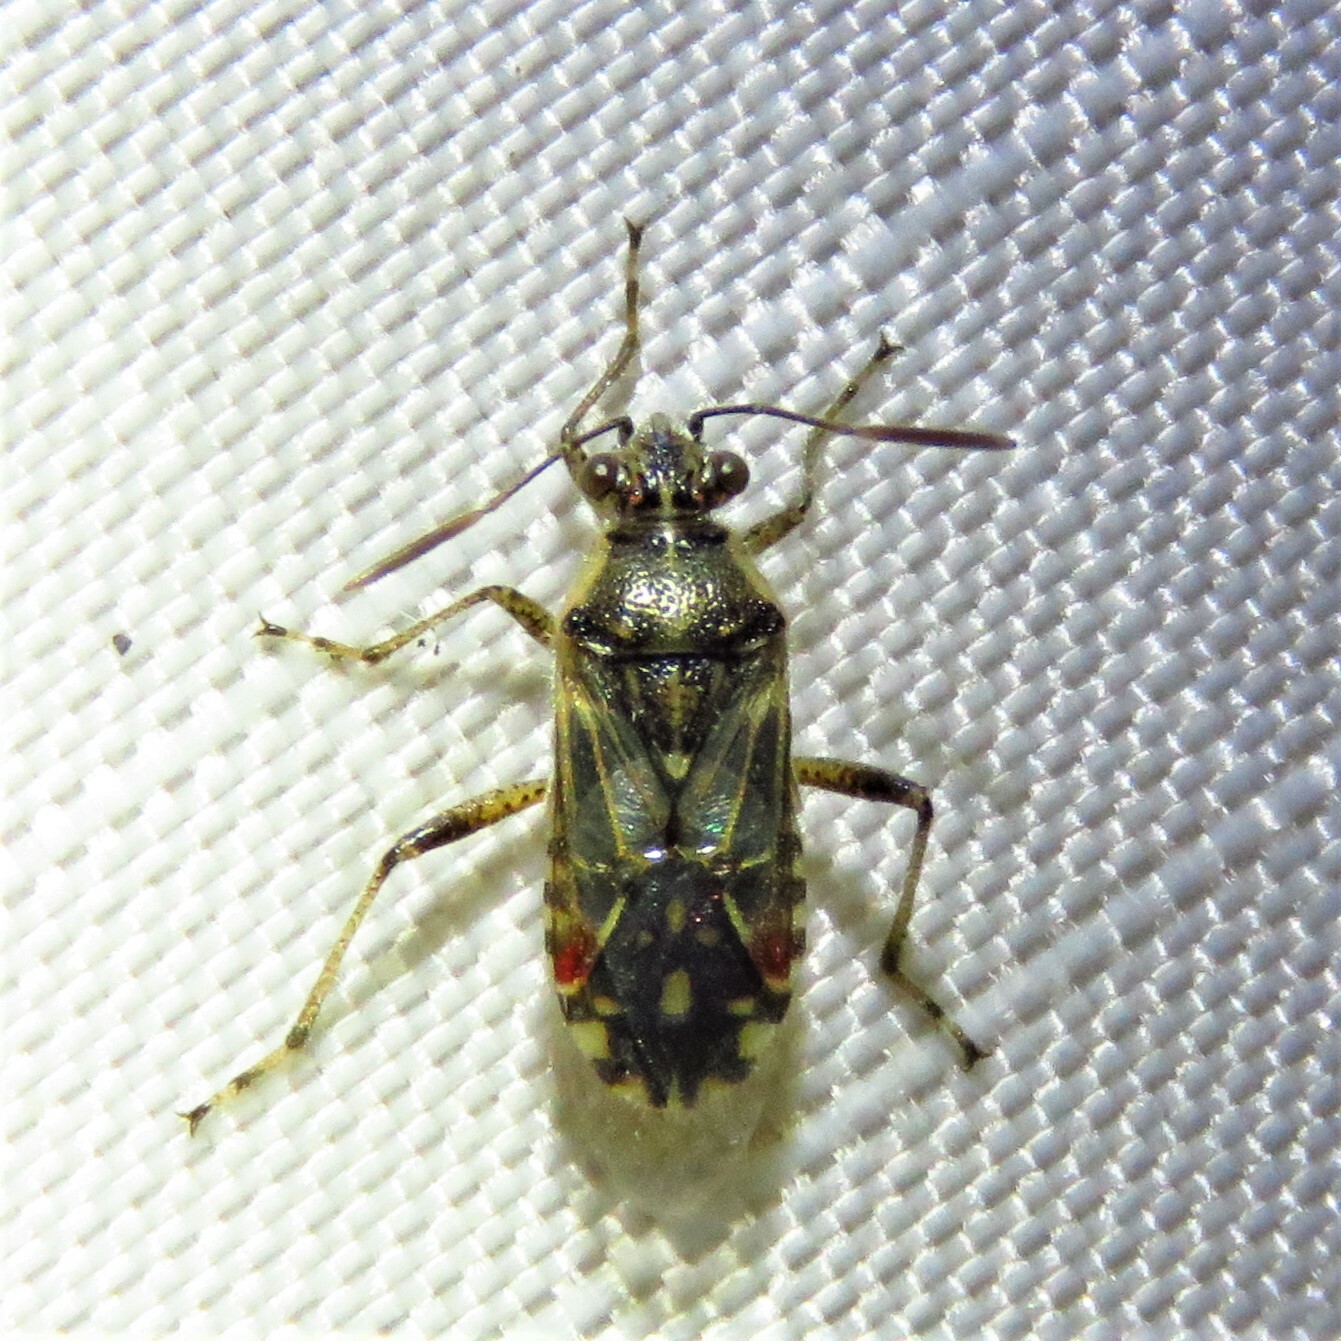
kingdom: Animalia
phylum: Arthropoda
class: Insecta
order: Hemiptera
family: Rhopalidae
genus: Liorhyssus
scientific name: Liorhyssus hyalinus
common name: Scentless plant bug
